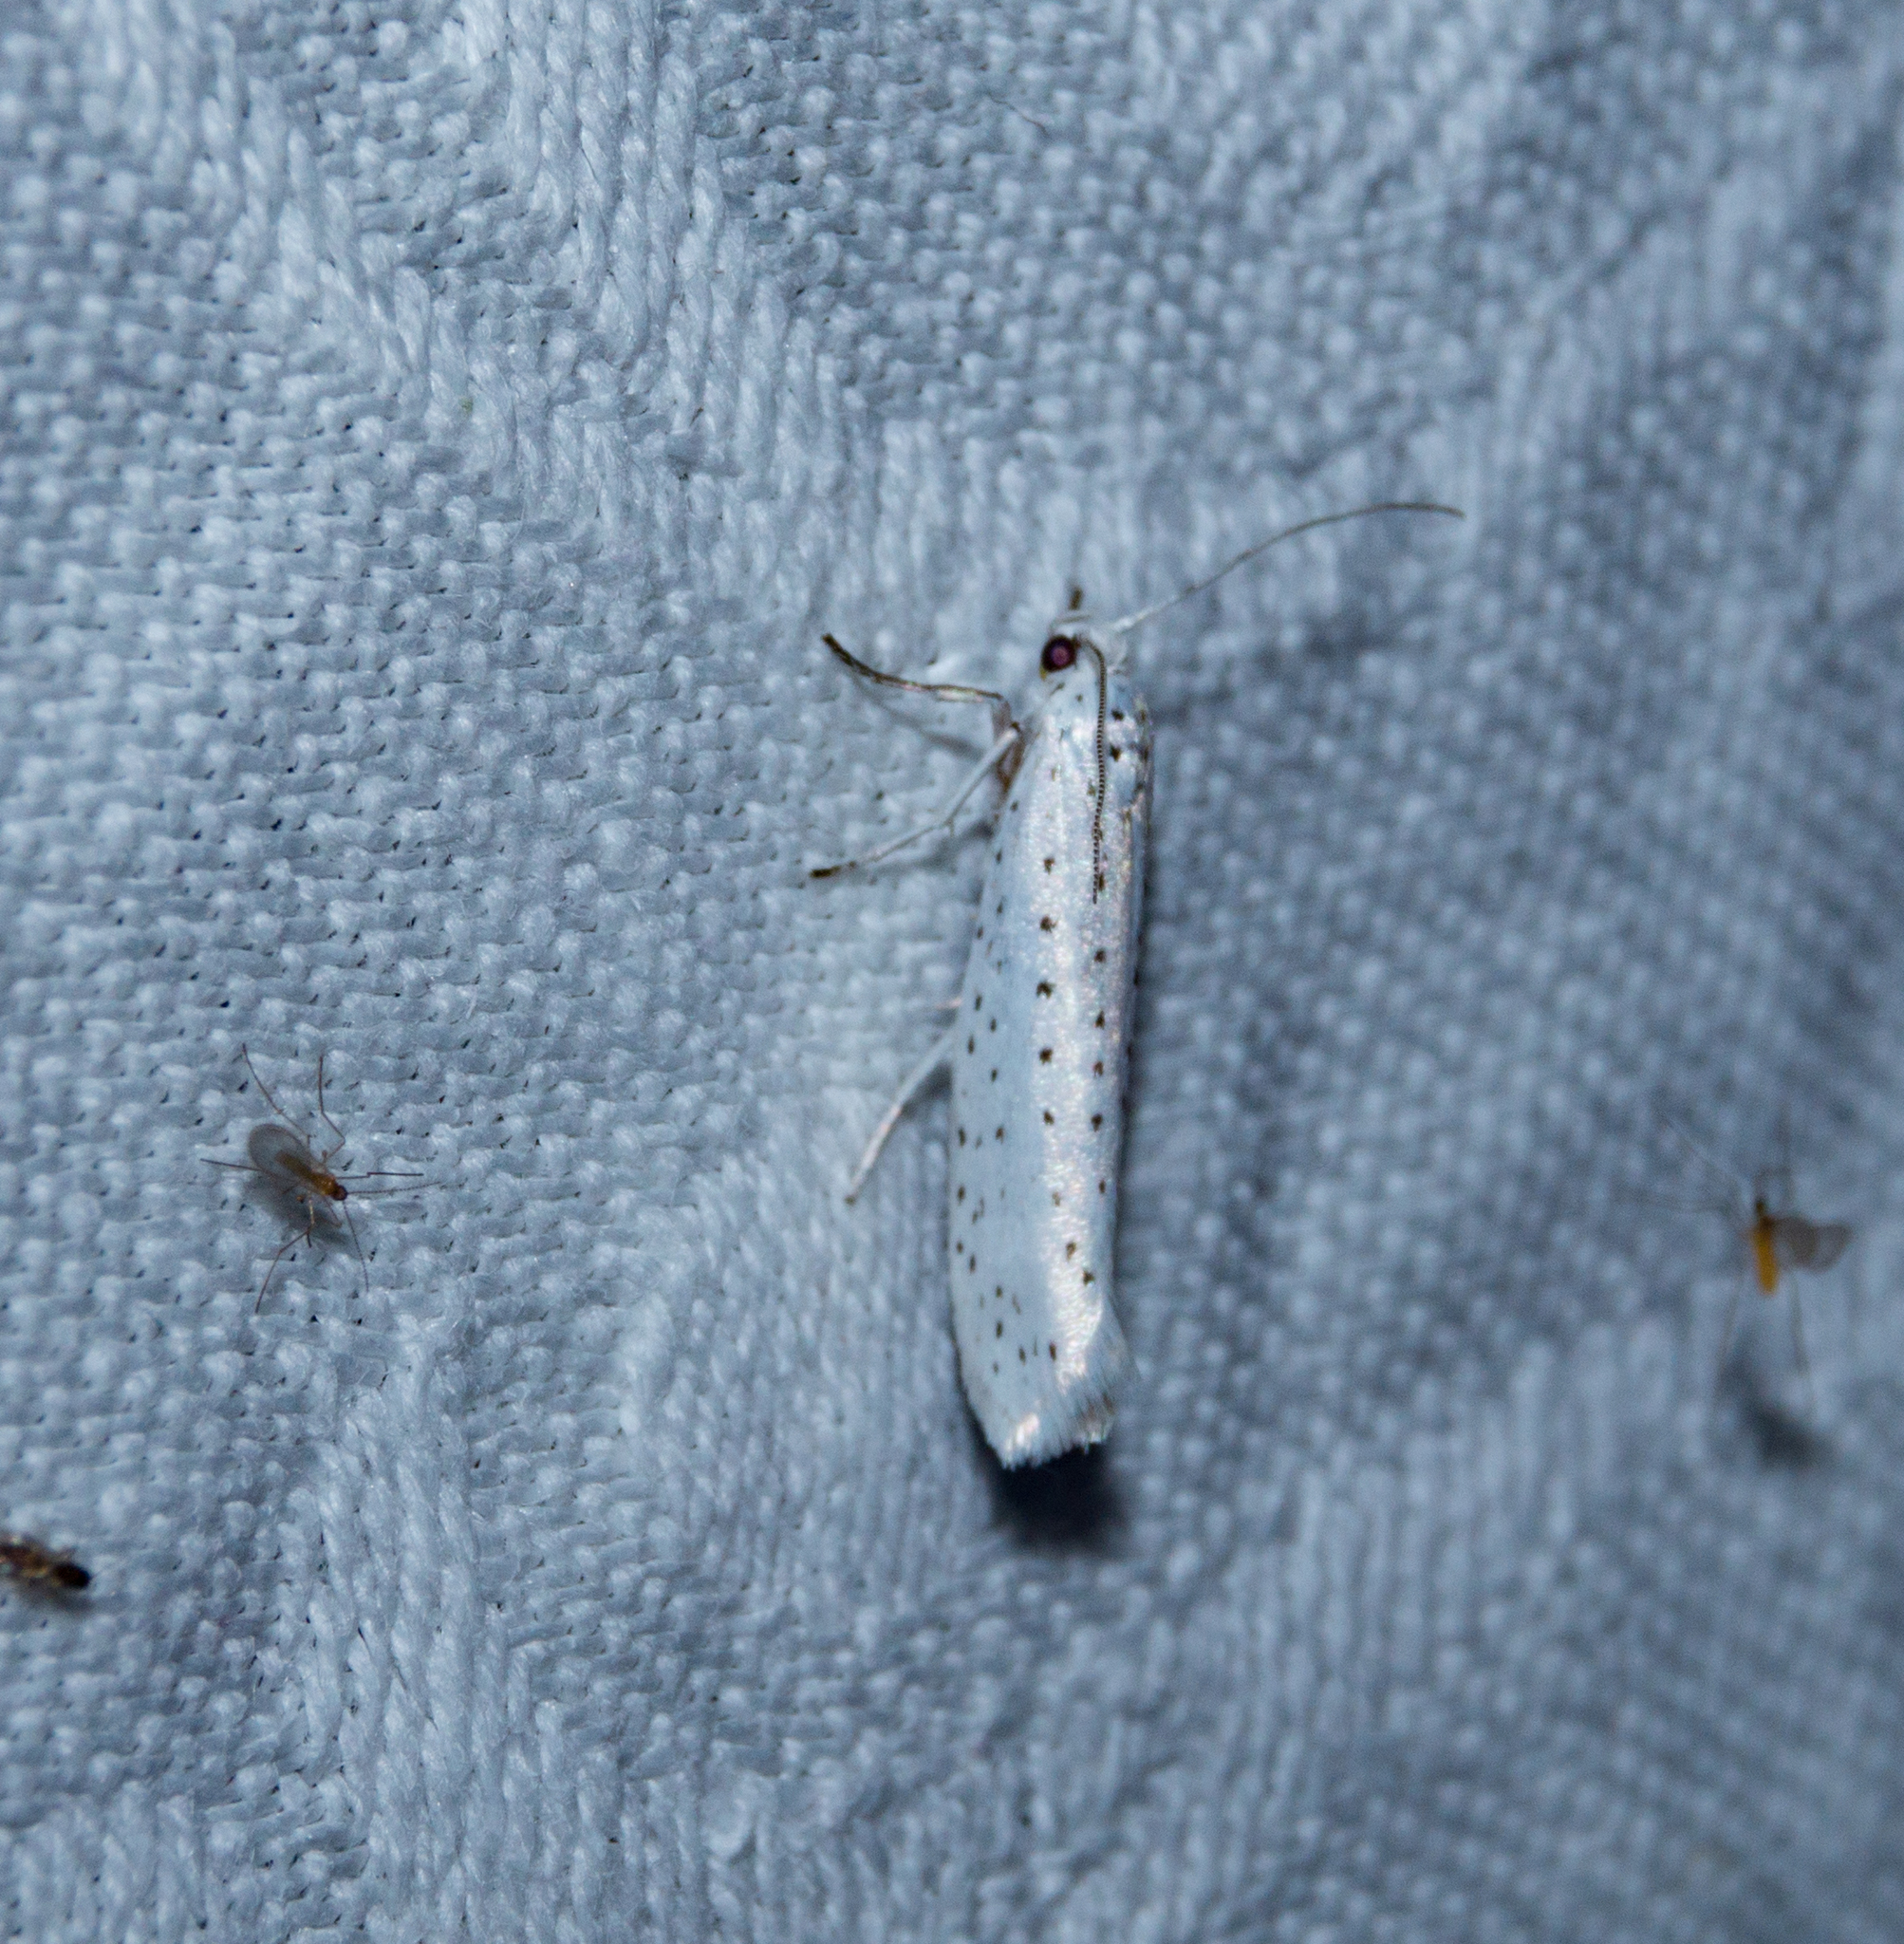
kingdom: Animalia
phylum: Arthropoda
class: Insecta
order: Lepidoptera
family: Yponomeutidae
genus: Yponomeuta
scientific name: Yponomeuta evonymella
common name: Bird-cherry ermine
